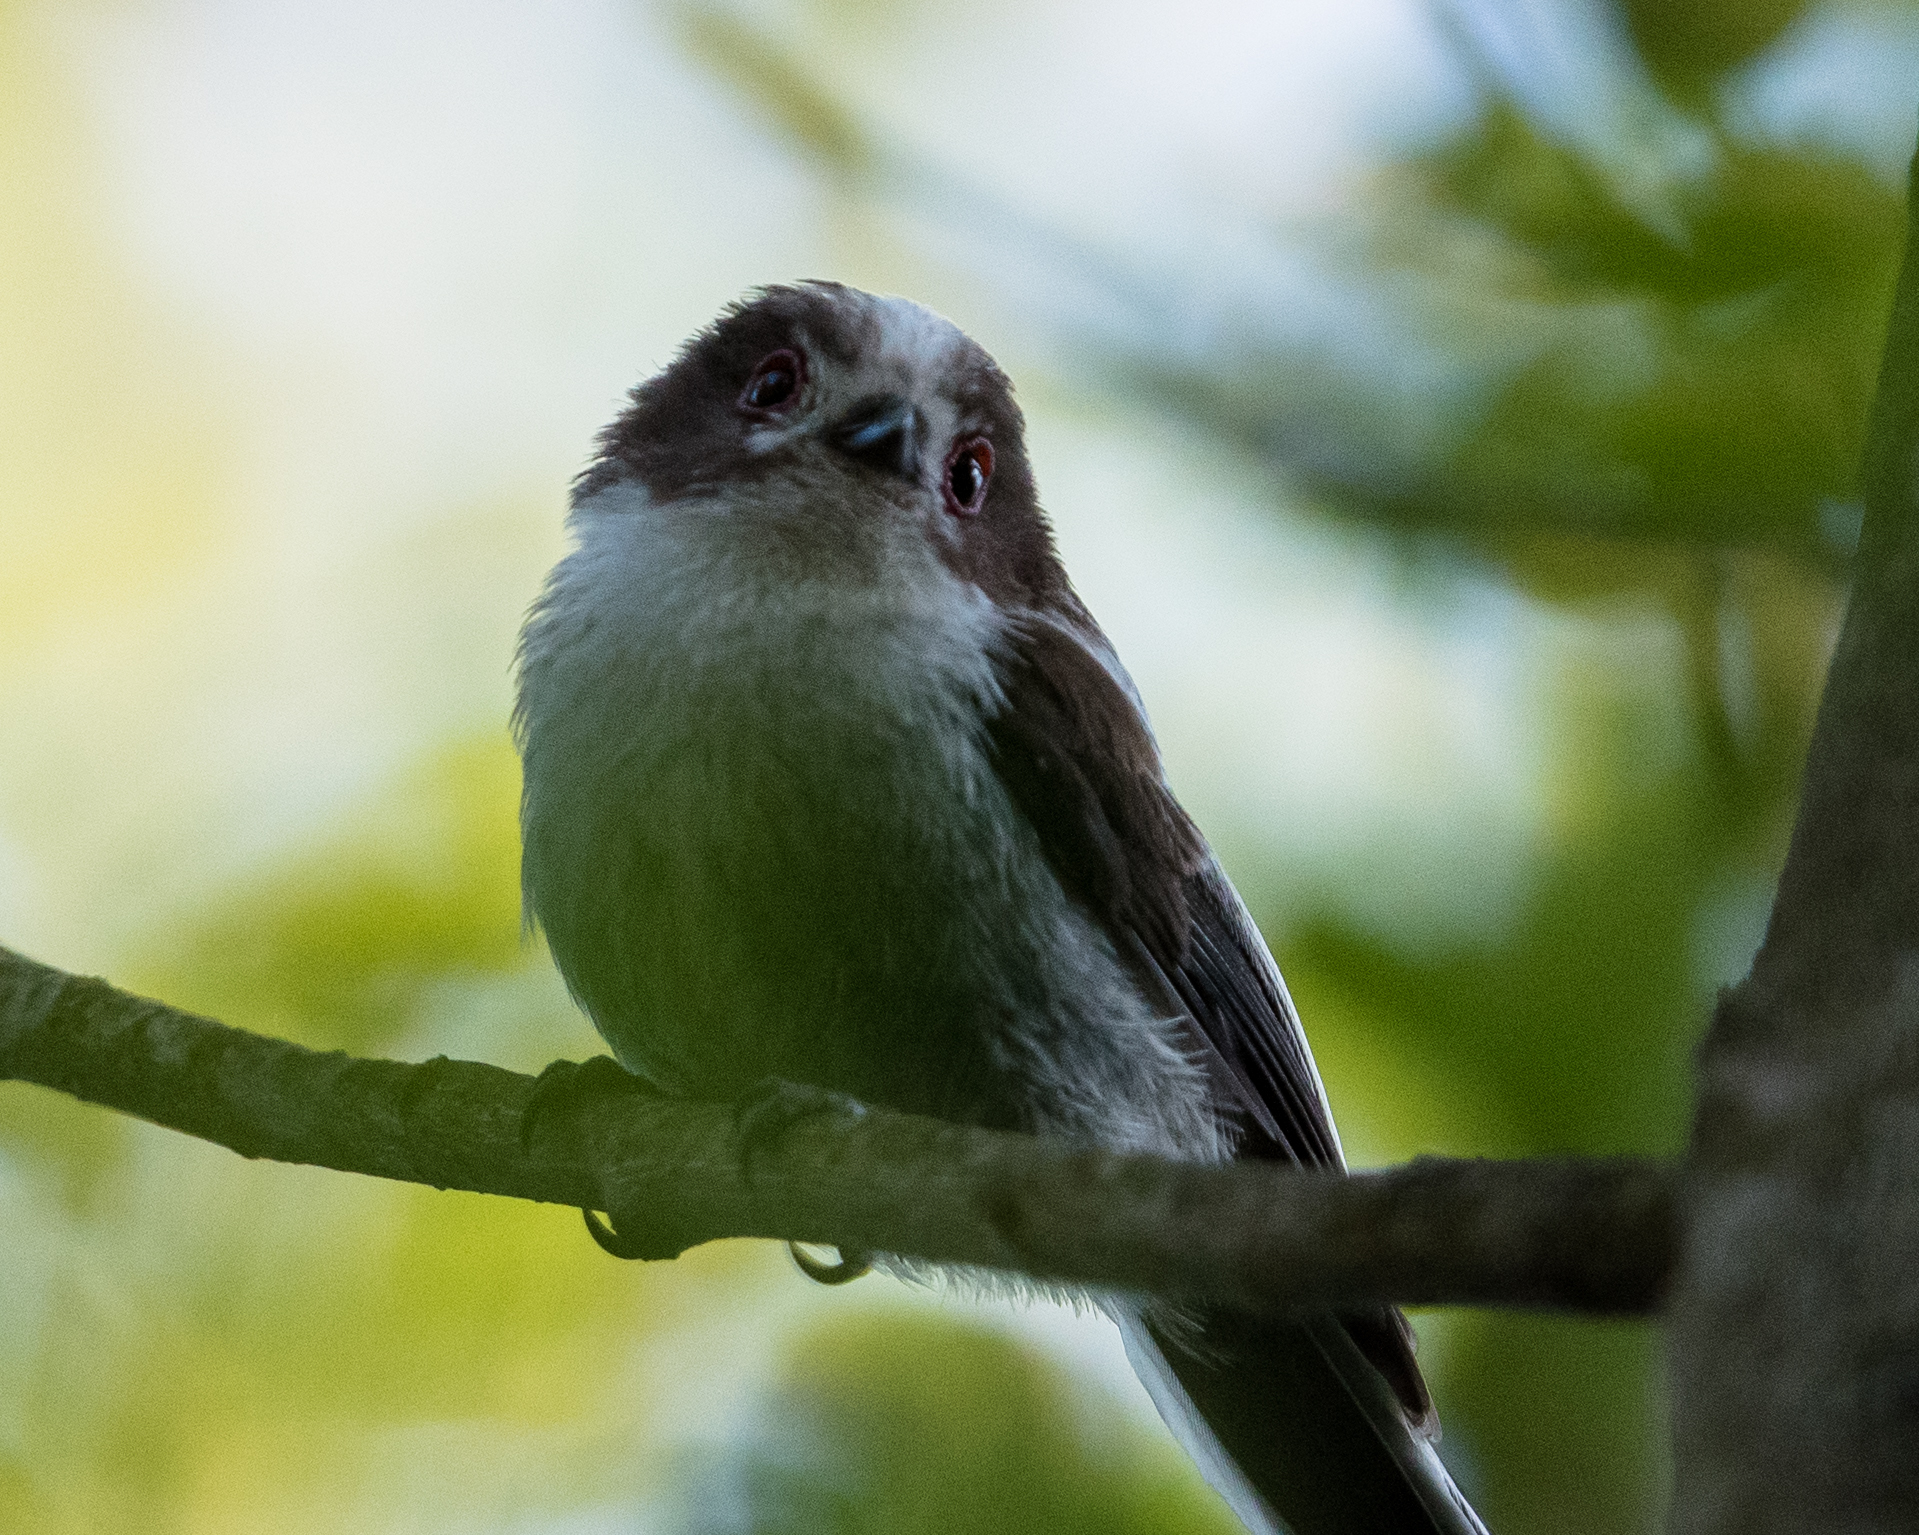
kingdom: Animalia
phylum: Chordata
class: Aves
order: Passeriformes
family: Aegithalidae
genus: Aegithalos
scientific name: Aegithalos caudatus
